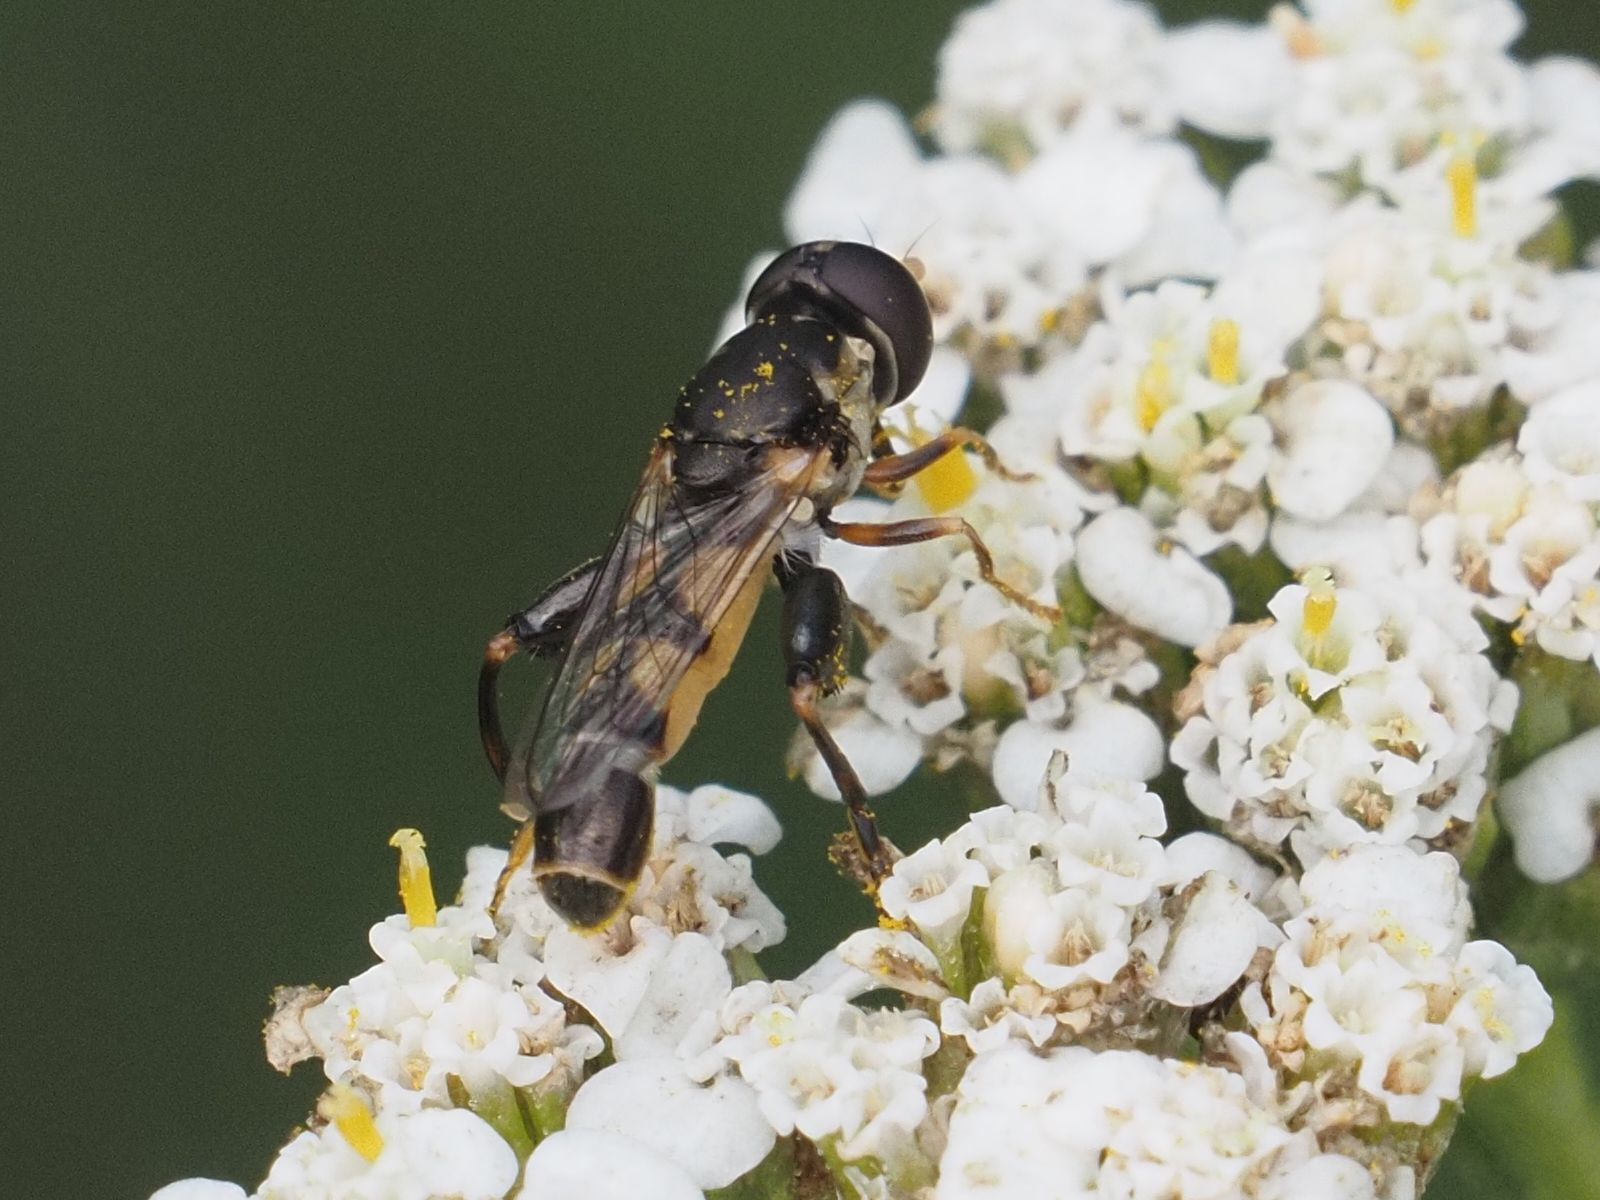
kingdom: Animalia
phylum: Arthropoda
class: Insecta
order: Diptera
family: Syrphidae
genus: Syritta
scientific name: Syritta pipiens
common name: Hover fly
